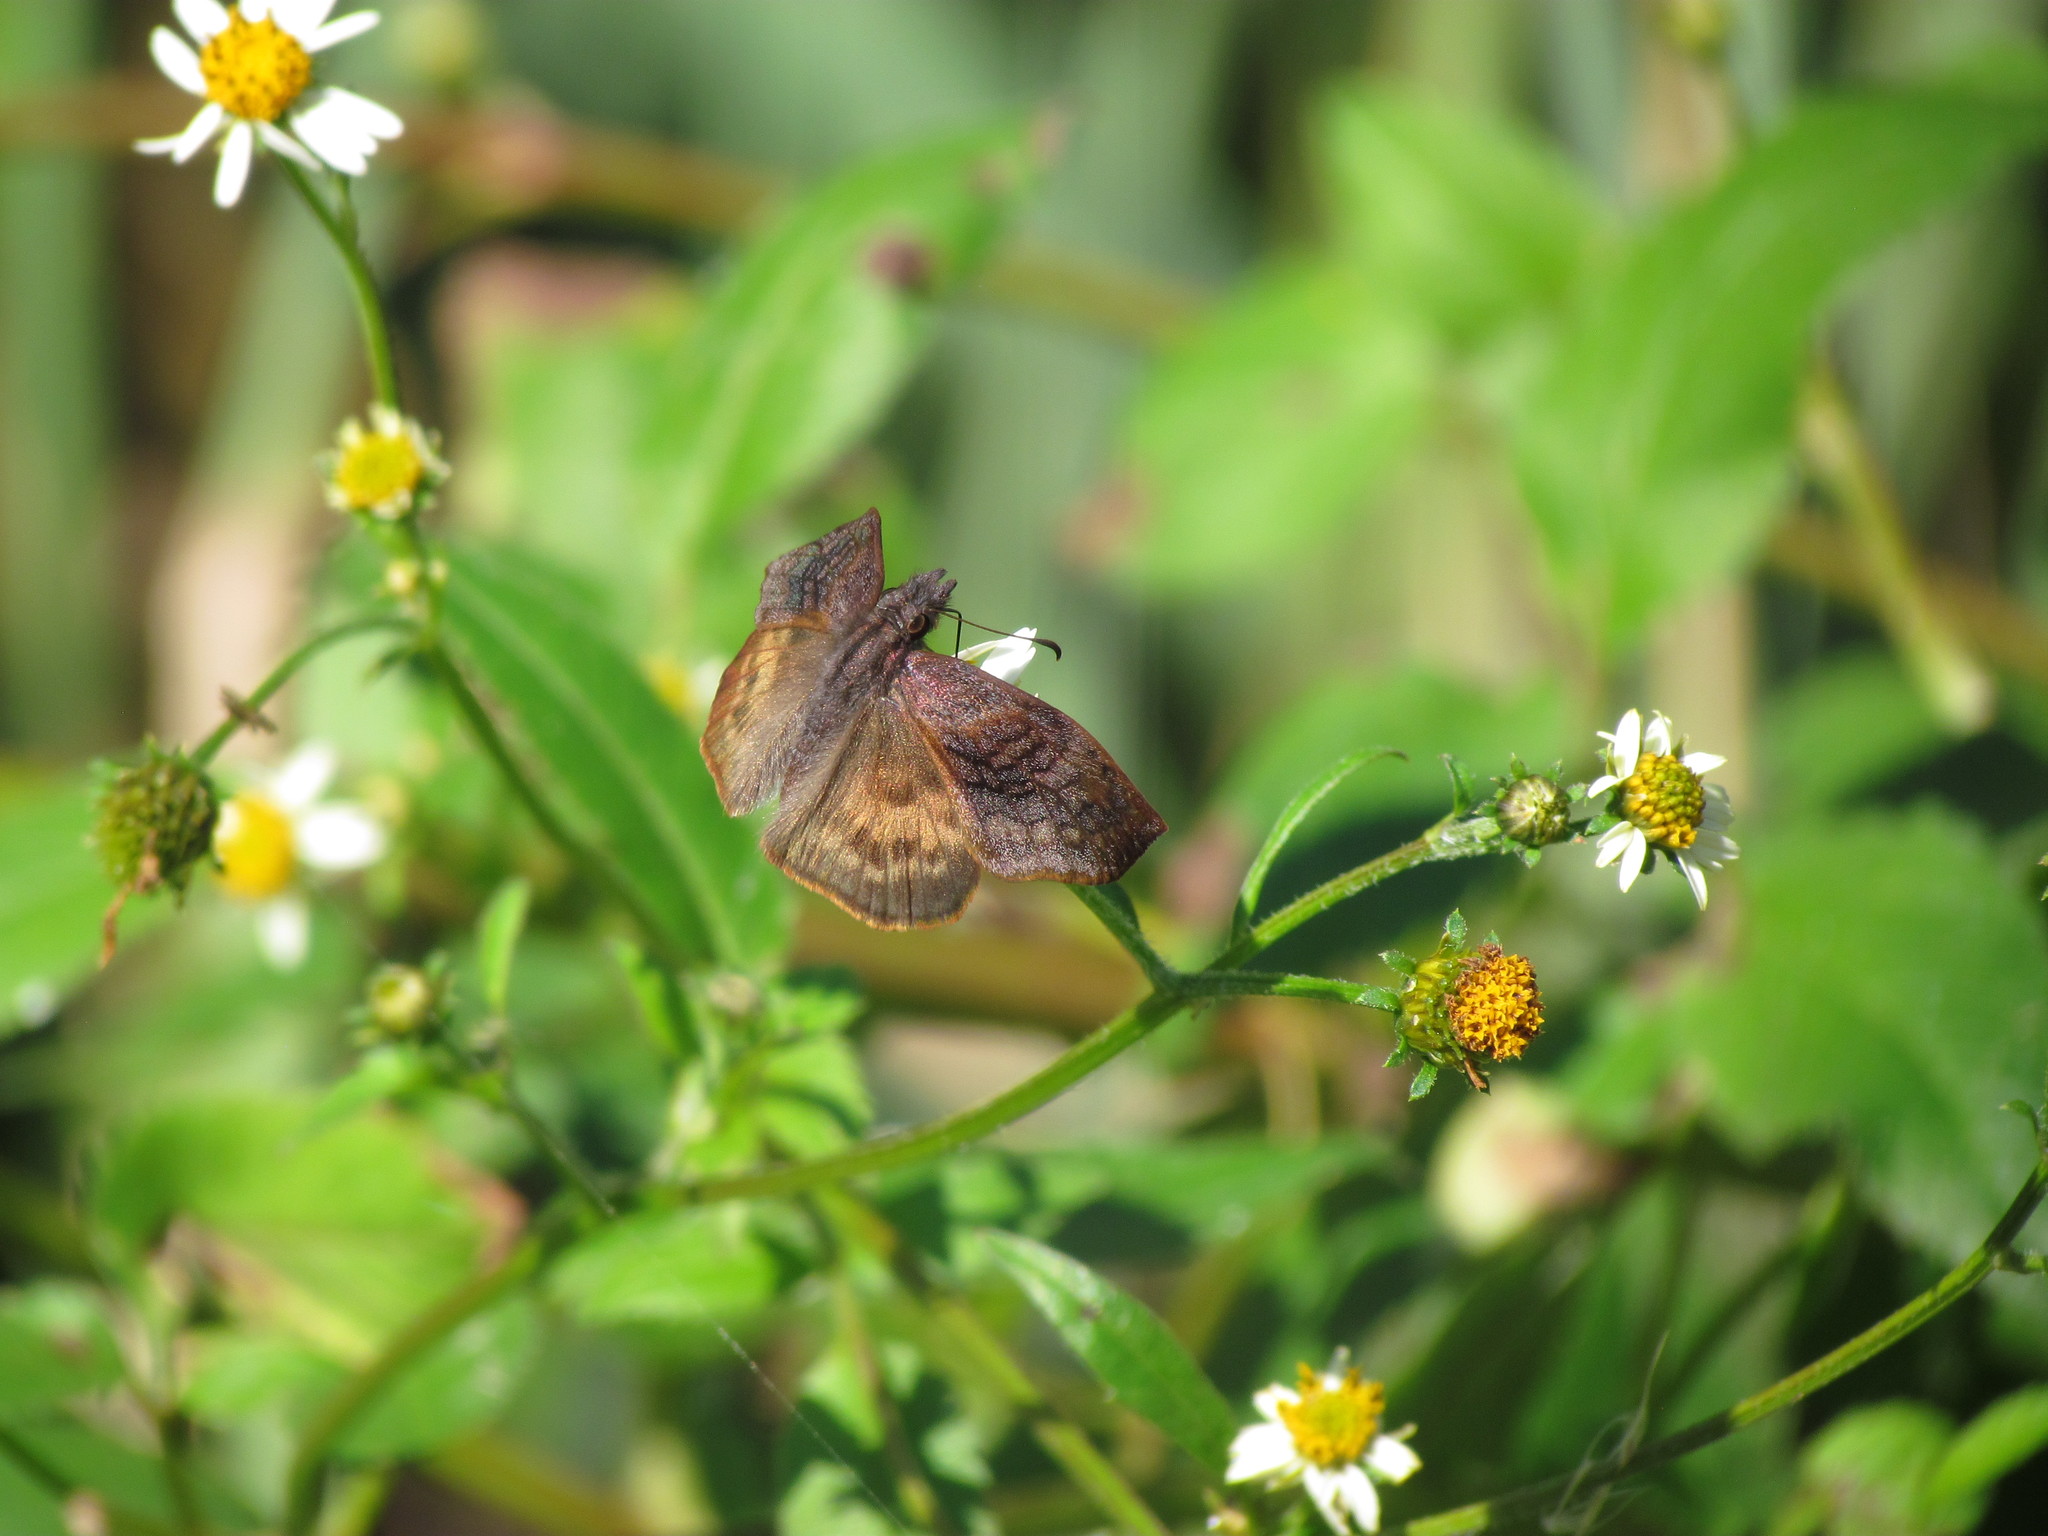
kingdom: Animalia
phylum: Arthropoda
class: Insecta
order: Lepidoptera
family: Hesperiidae
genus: Theagenes
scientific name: Theagenes dichrous
